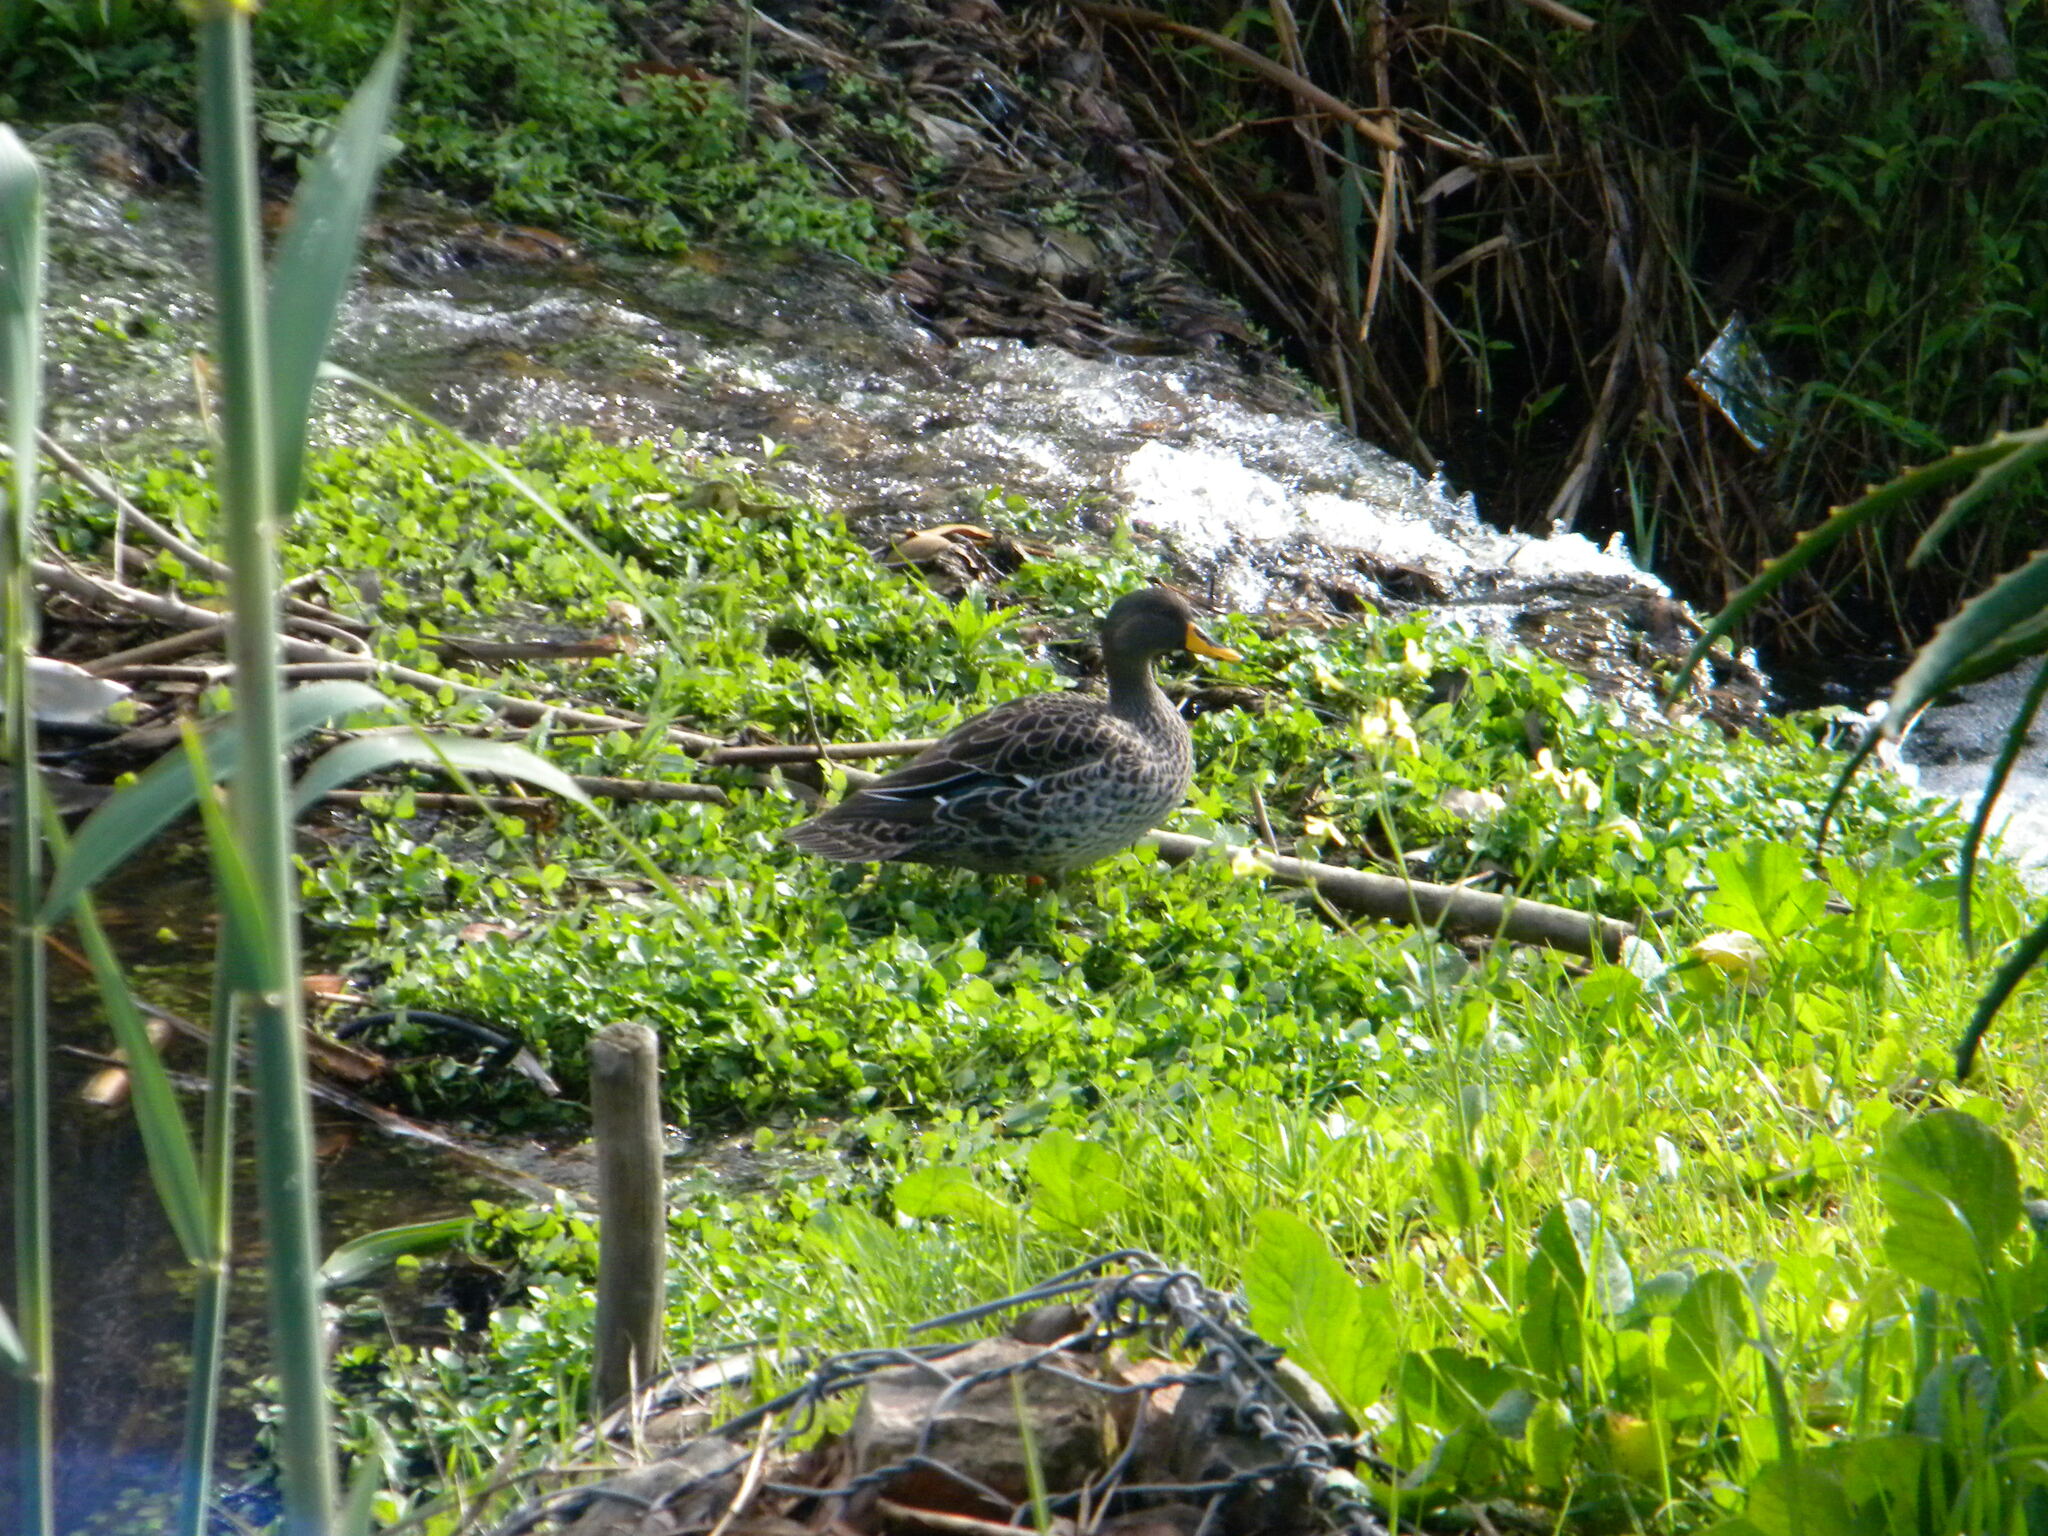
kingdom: Animalia
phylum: Chordata
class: Aves
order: Anseriformes
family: Anatidae
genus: Anas
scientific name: Anas undulata
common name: Yellow-billed duck
